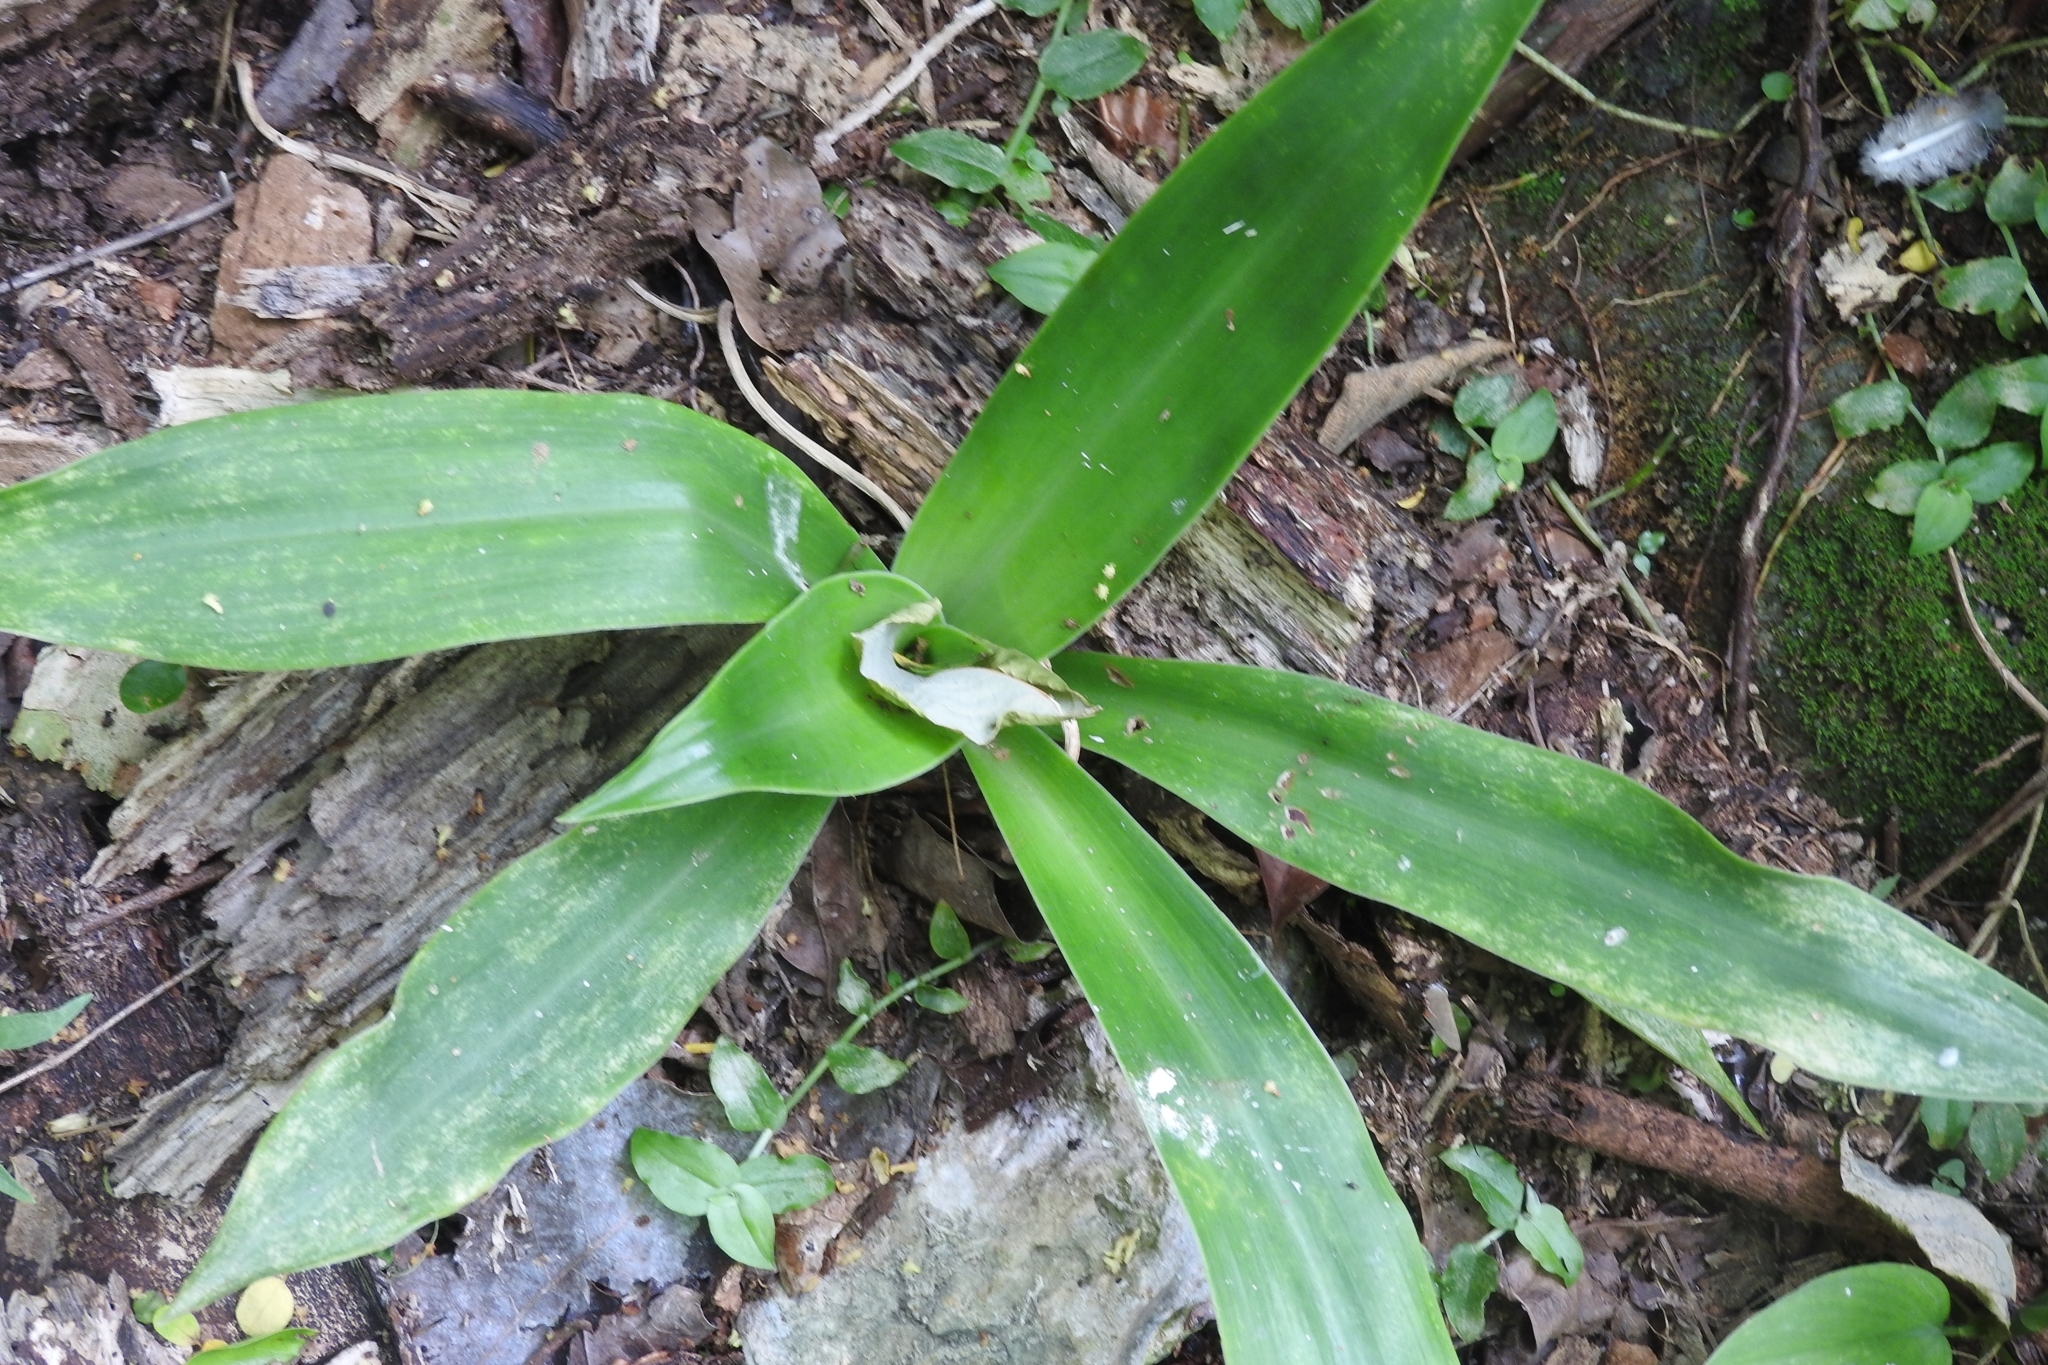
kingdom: Plantae
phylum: Tracheophyta
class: Liliopsida
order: Commelinales
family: Commelinaceae
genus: Callisia
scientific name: Callisia fragrans
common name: Basketplant
